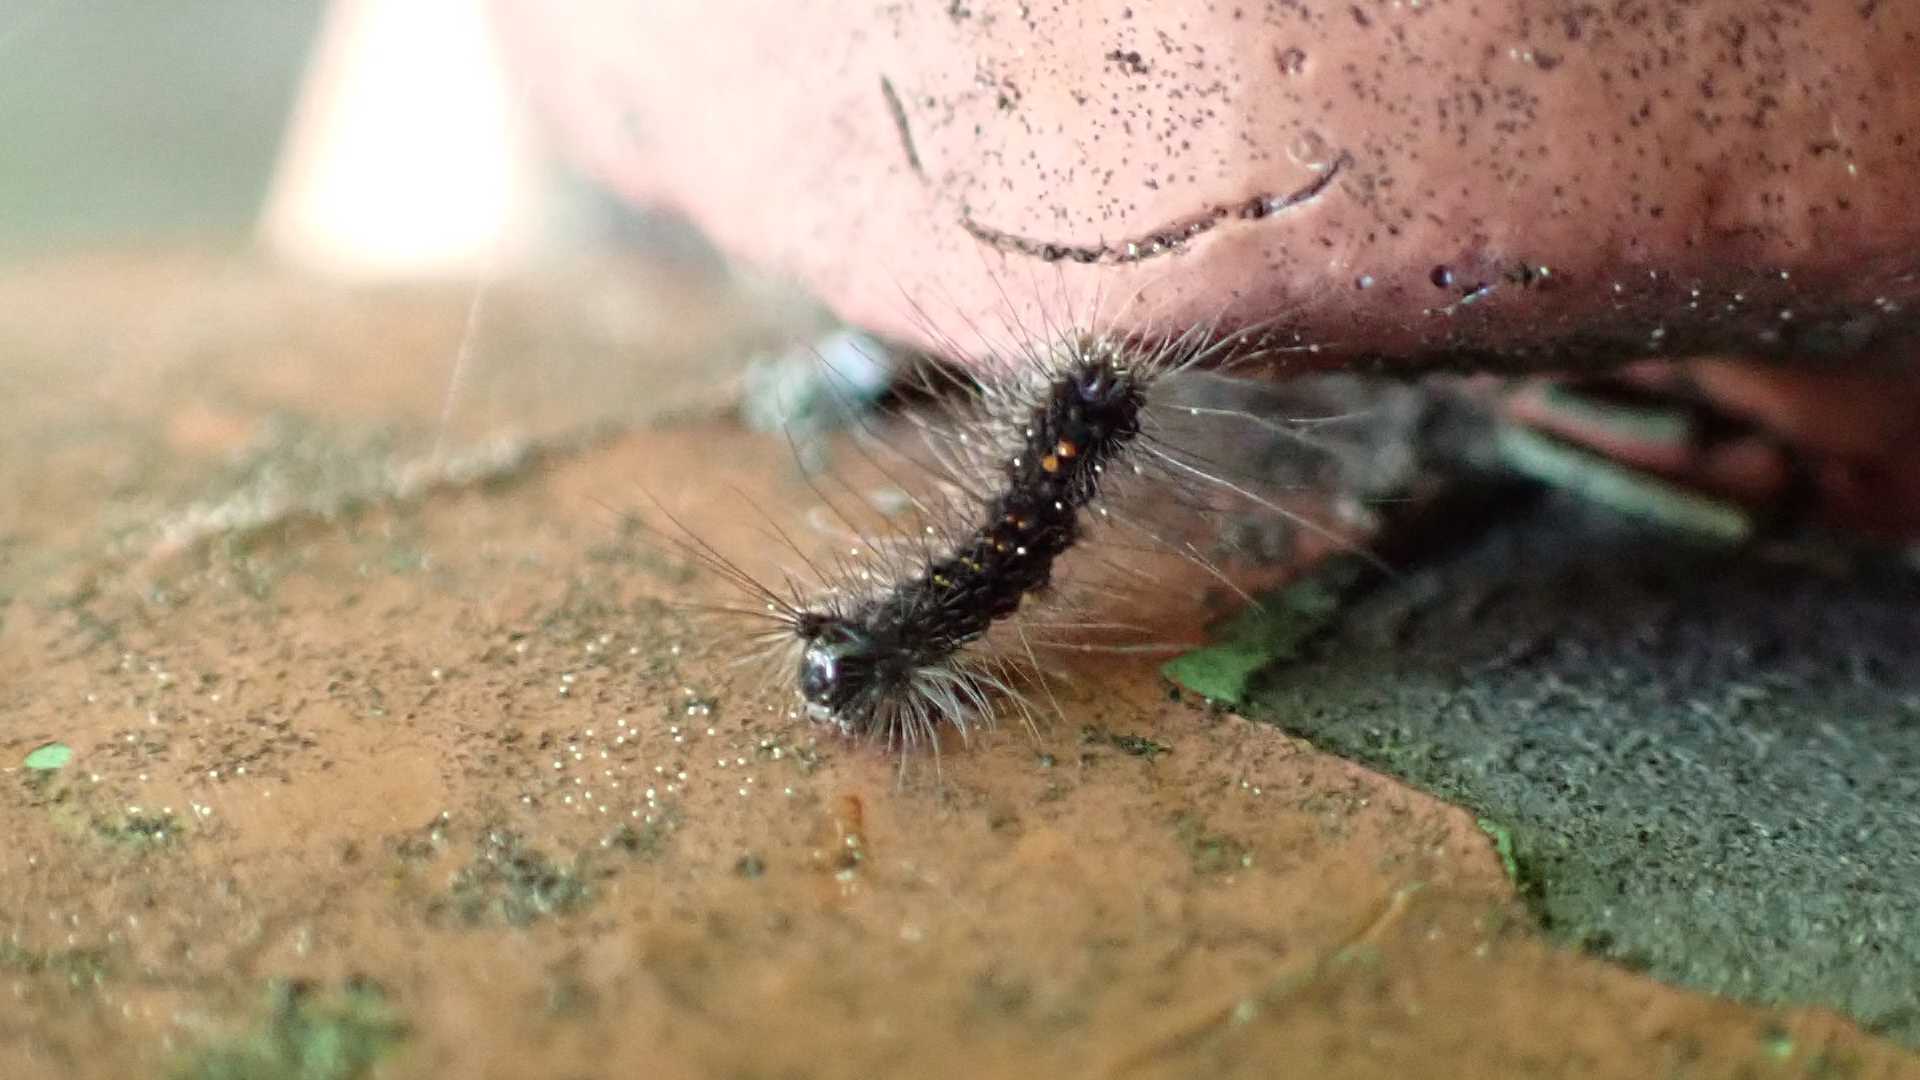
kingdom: Animalia
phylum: Arthropoda
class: Insecta
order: Lepidoptera
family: Erebidae
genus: Lymantria
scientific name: Lymantria dispar
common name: Gypsy moth
